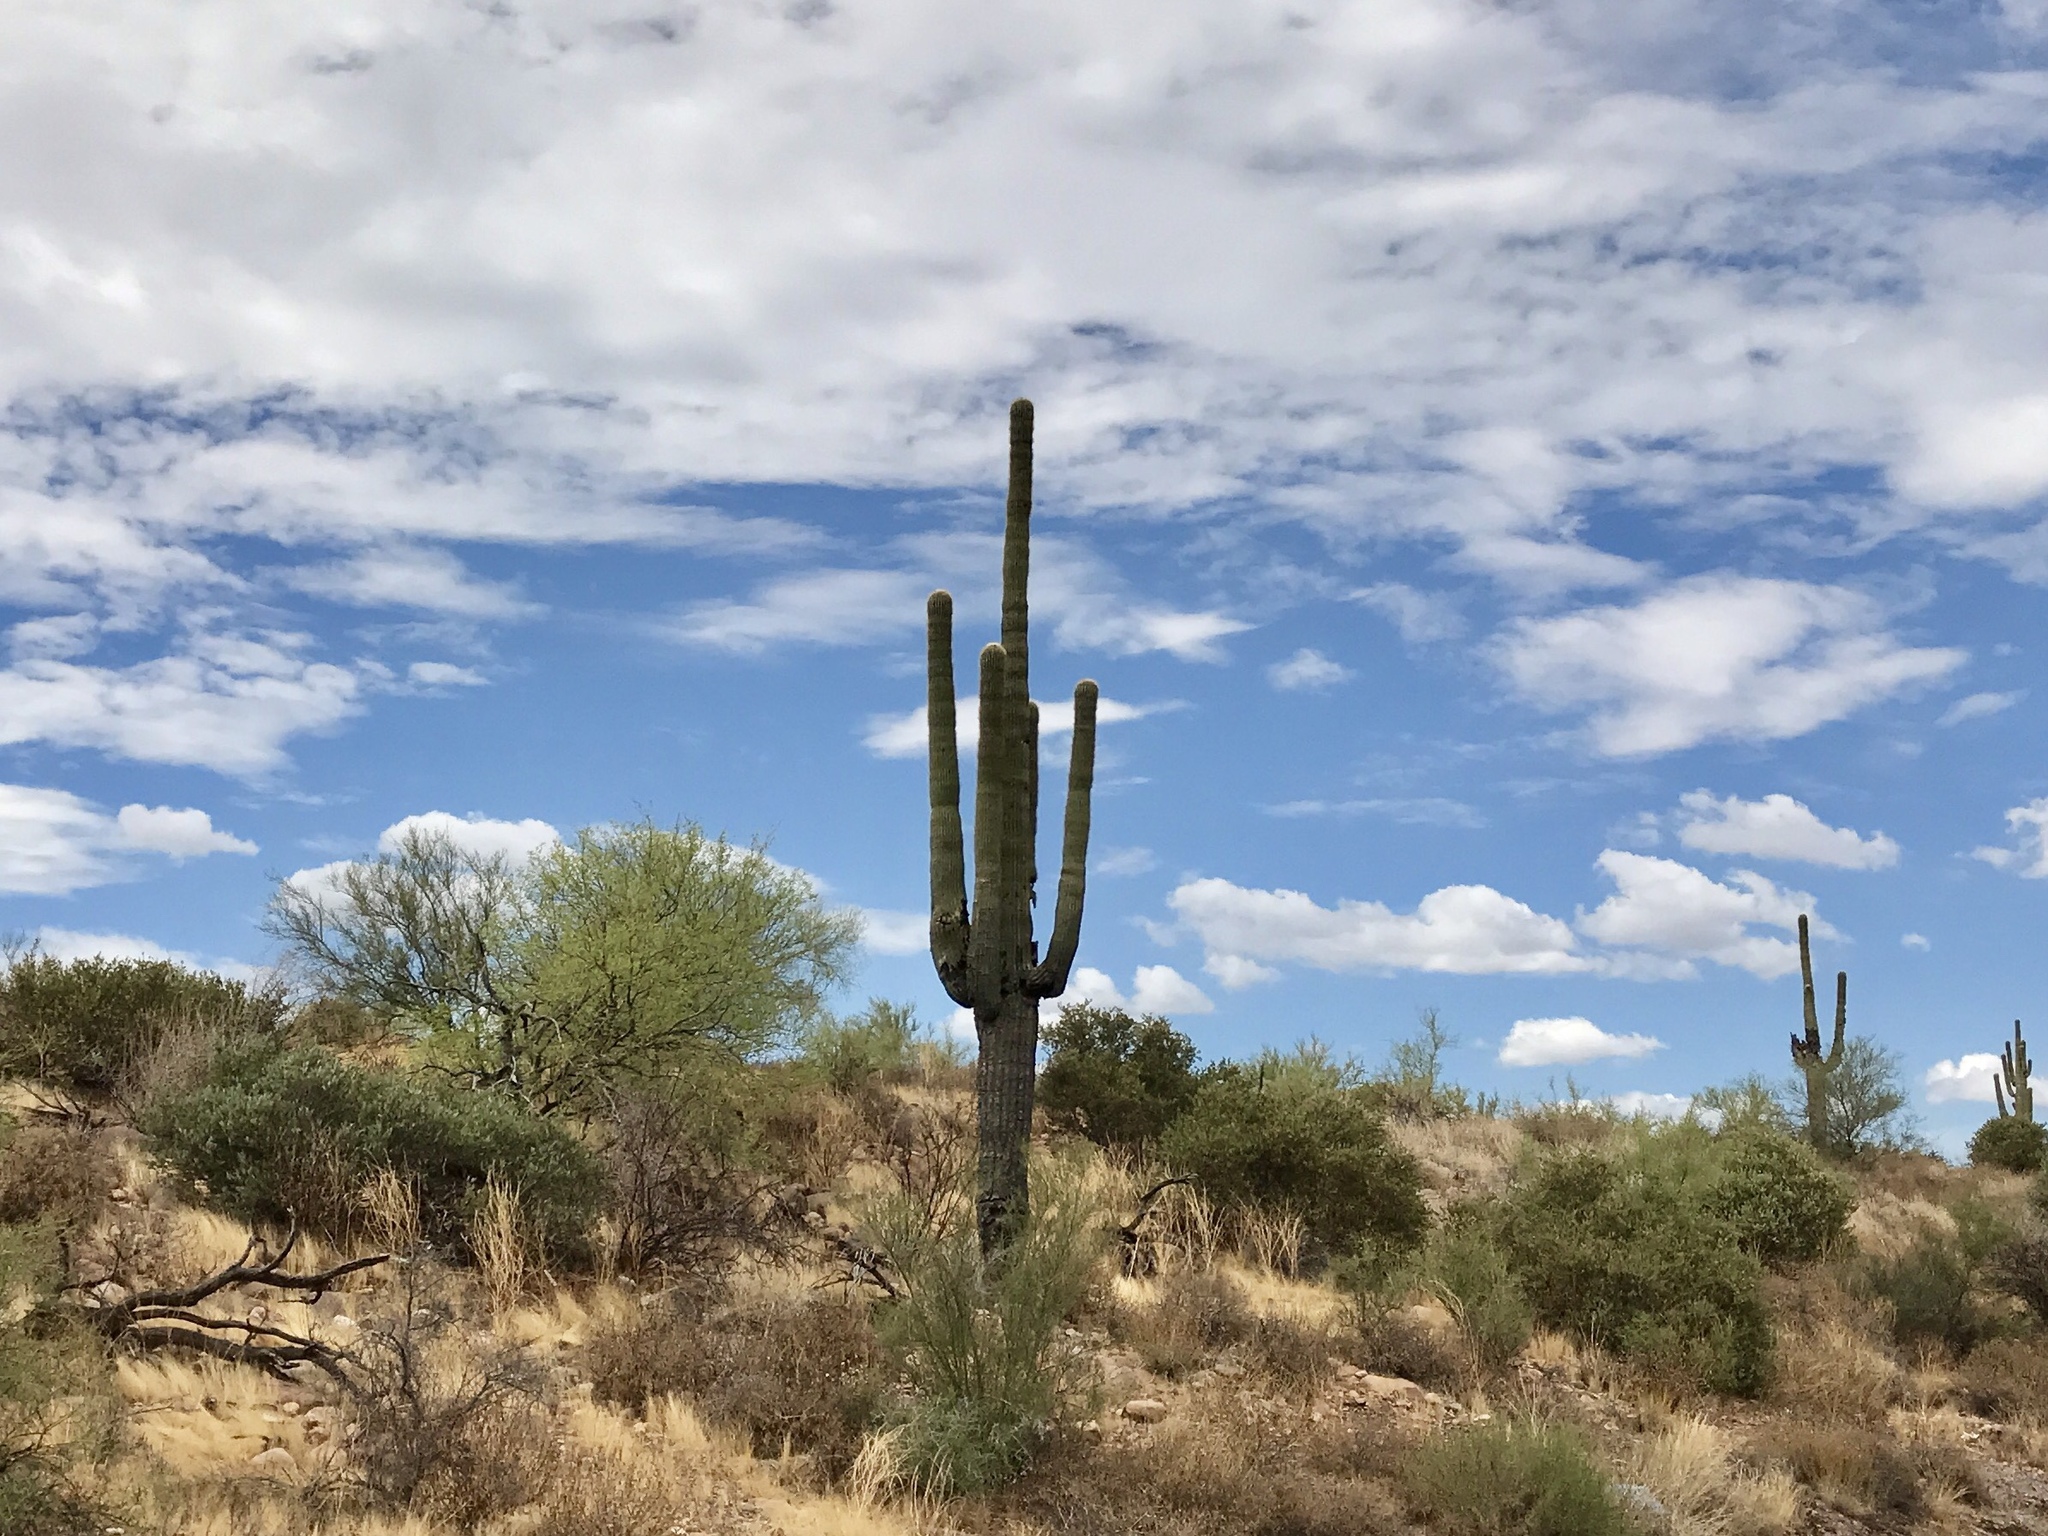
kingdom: Plantae
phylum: Tracheophyta
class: Magnoliopsida
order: Caryophyllales
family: Cactaceae
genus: Carnegiea
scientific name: Carnegiea gigantea
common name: Saguaro
